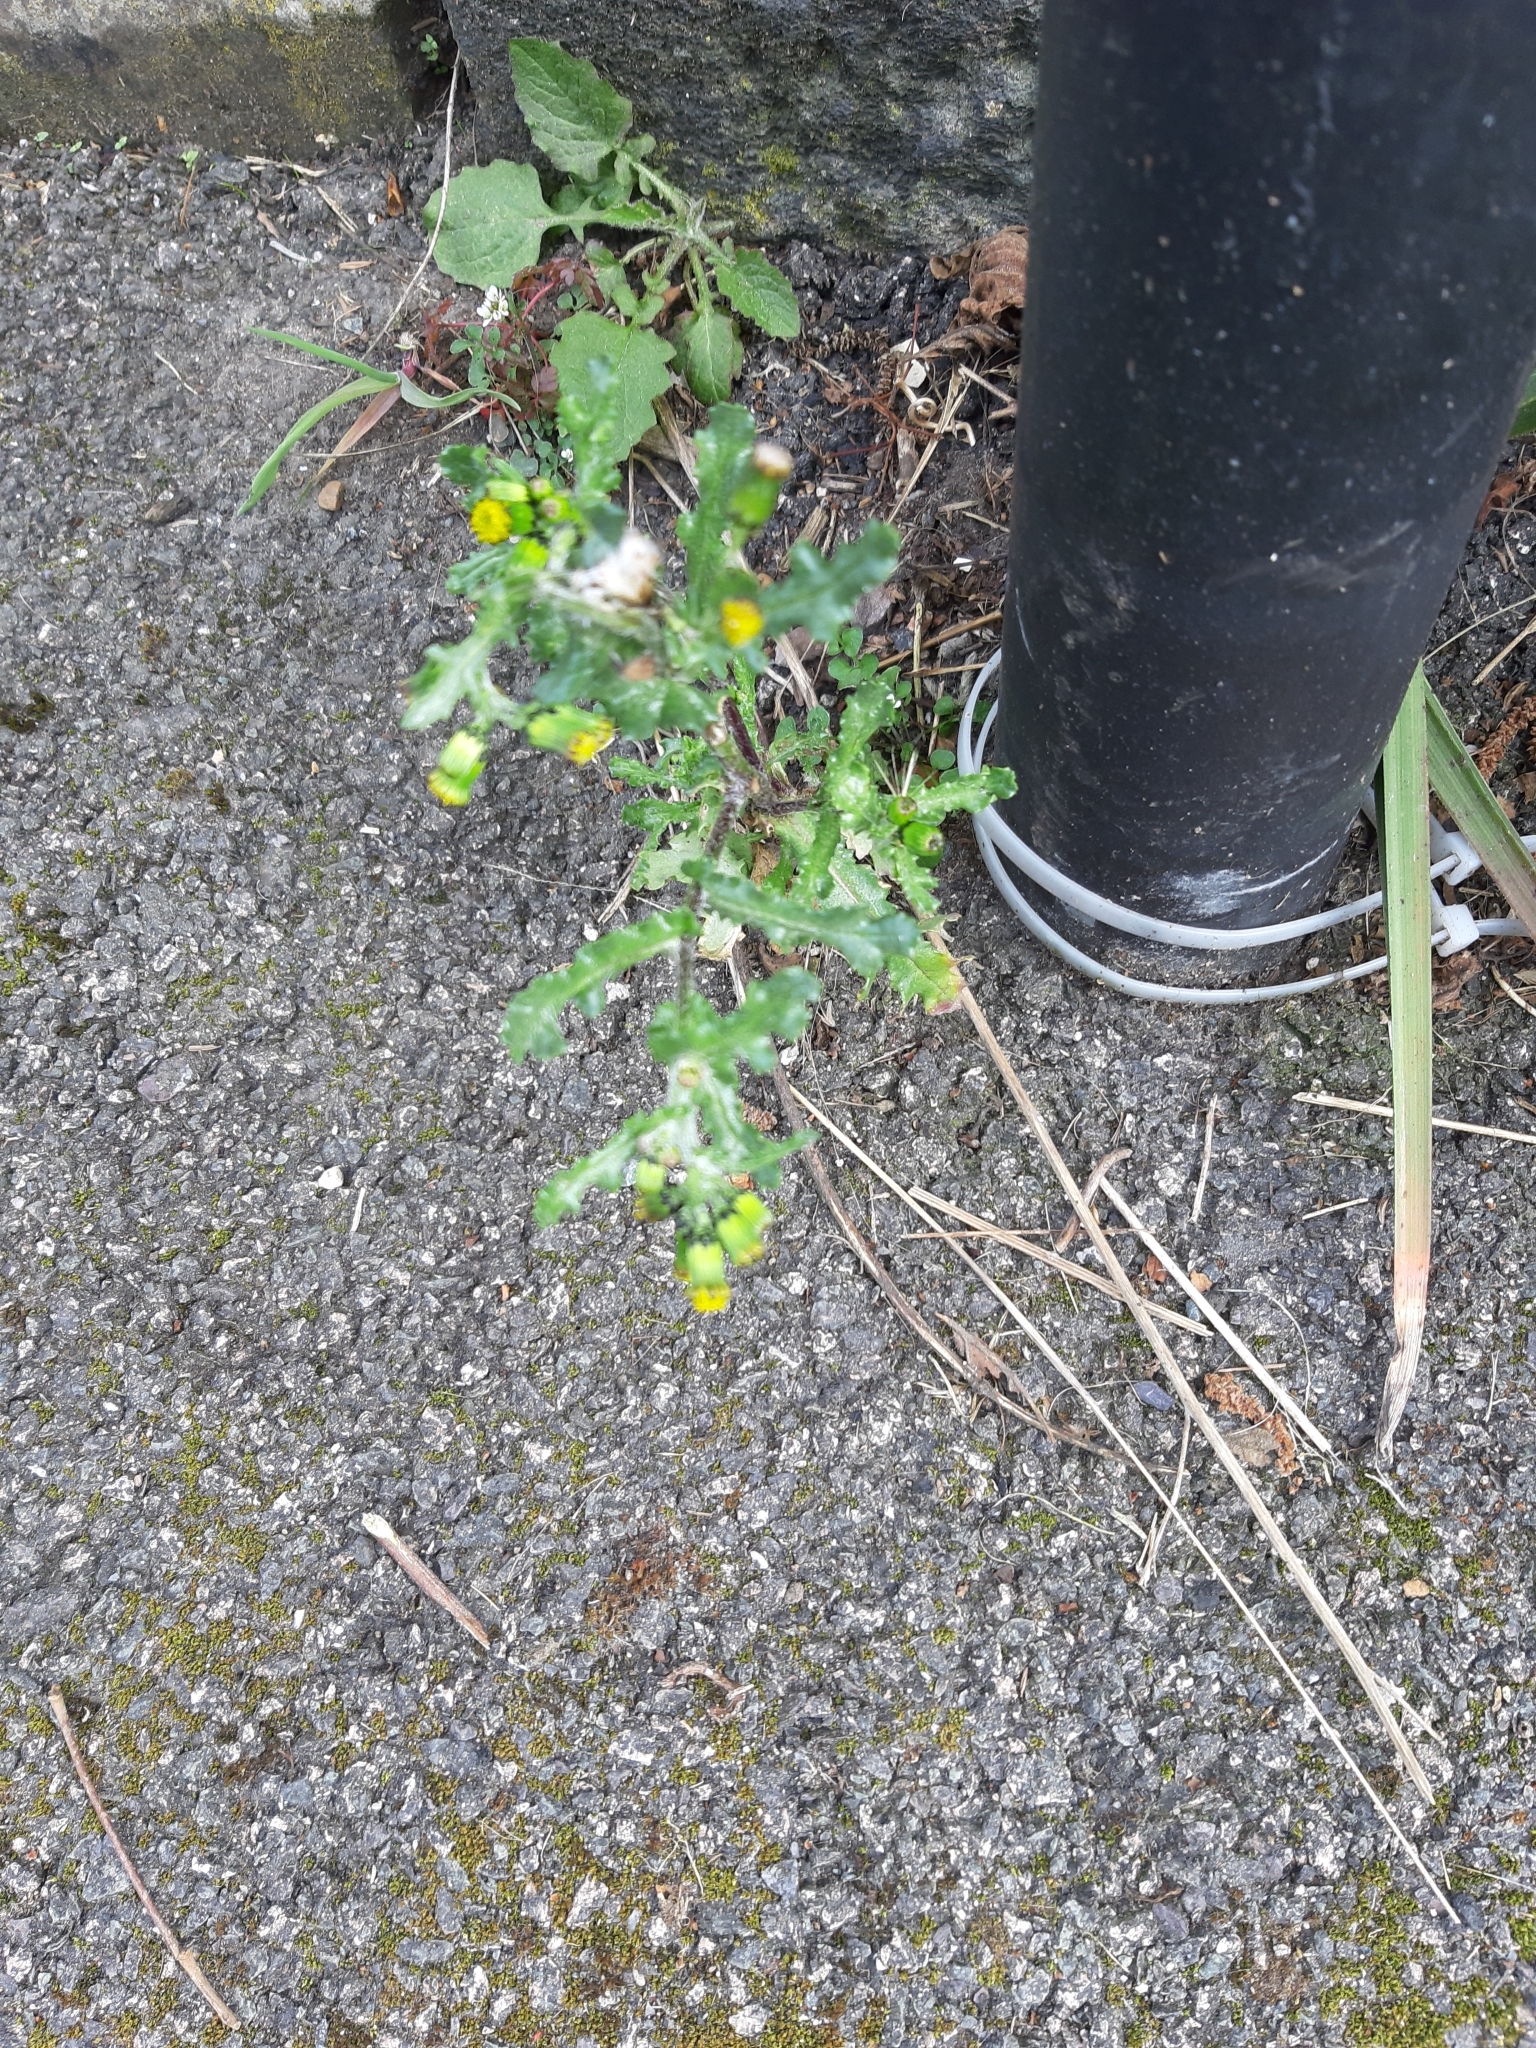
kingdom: Plantae
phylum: Tracheophyta
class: Magnoliopsida
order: Asterales
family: Asteraceae
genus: Senecio
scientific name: Senecio vulgaris
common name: Old-man-in-the-spring
